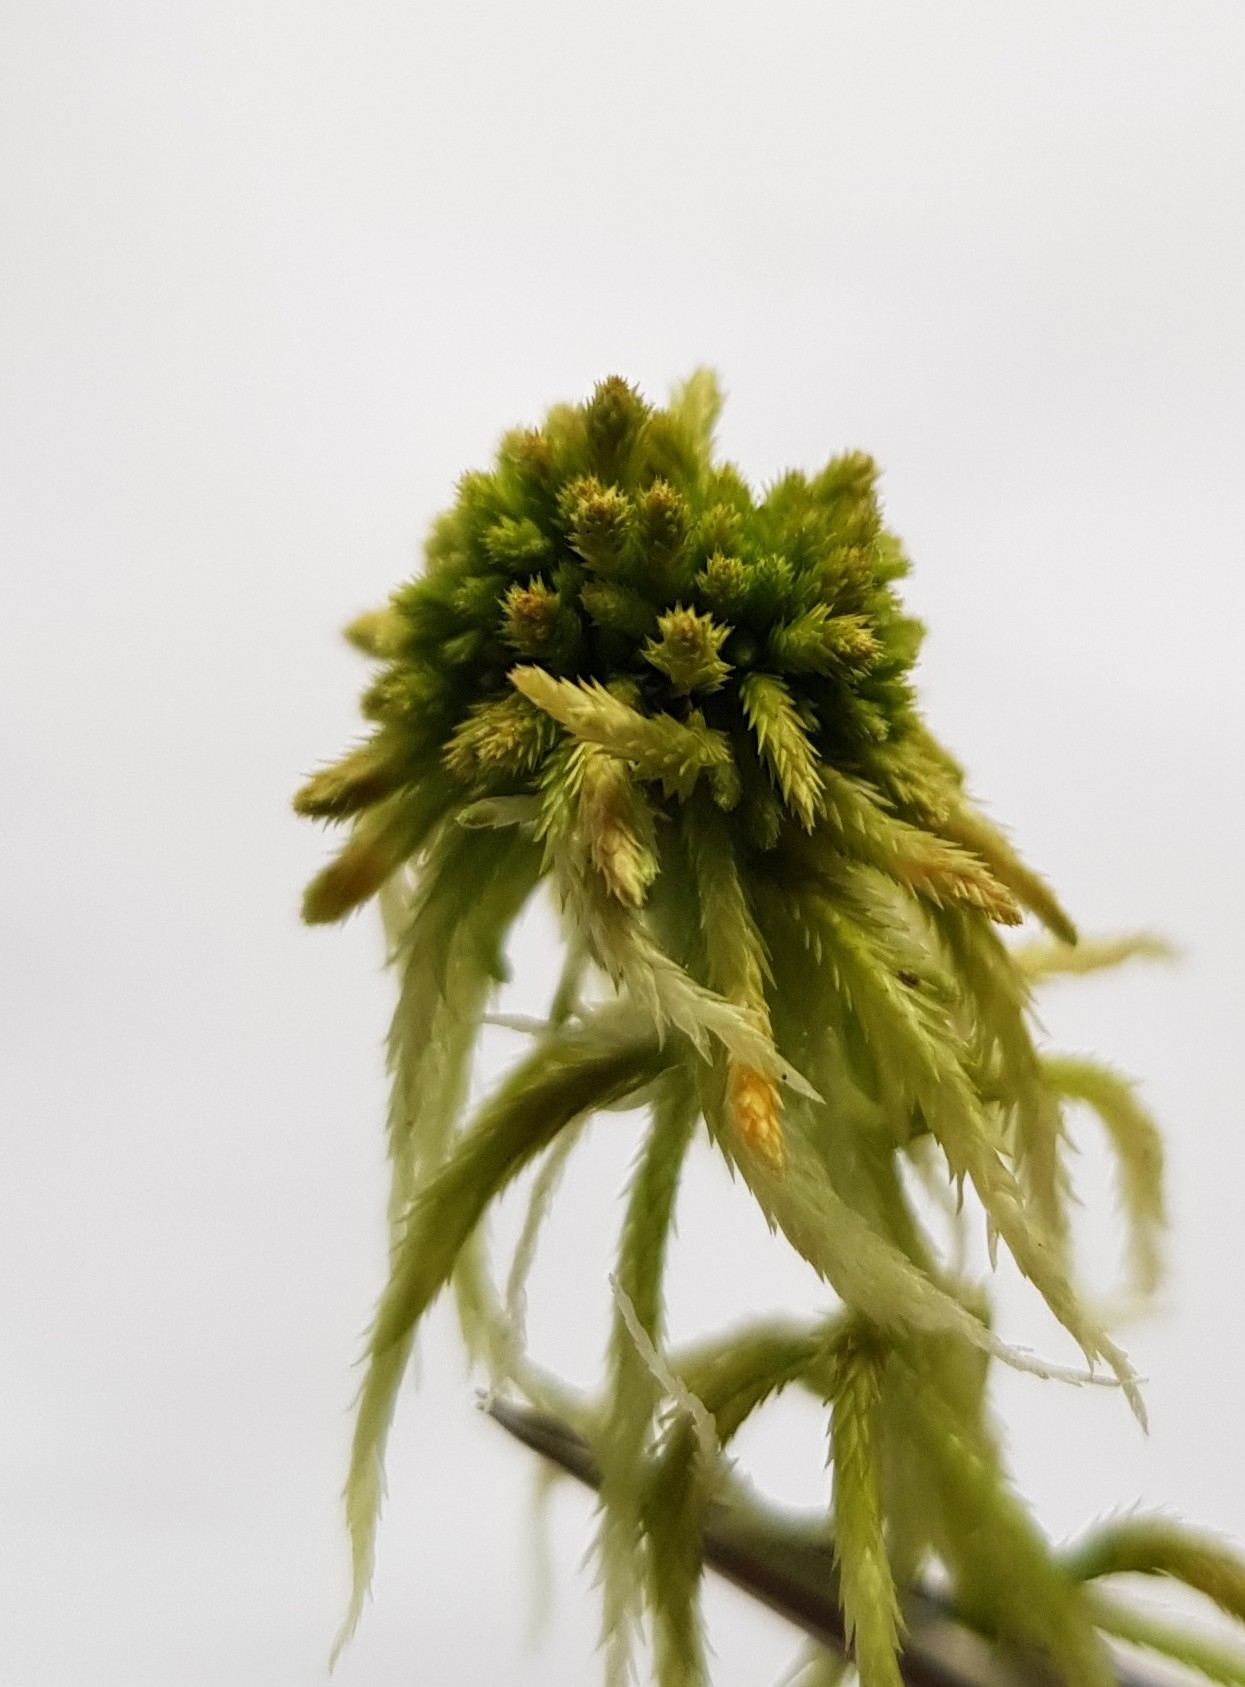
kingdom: Plantae
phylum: Bryophyta
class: Sphagnopsida
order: Sphagnales
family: Sphagnaceae
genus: Sphagnum
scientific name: Sphagnum fallax
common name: Flat-top peat moss
